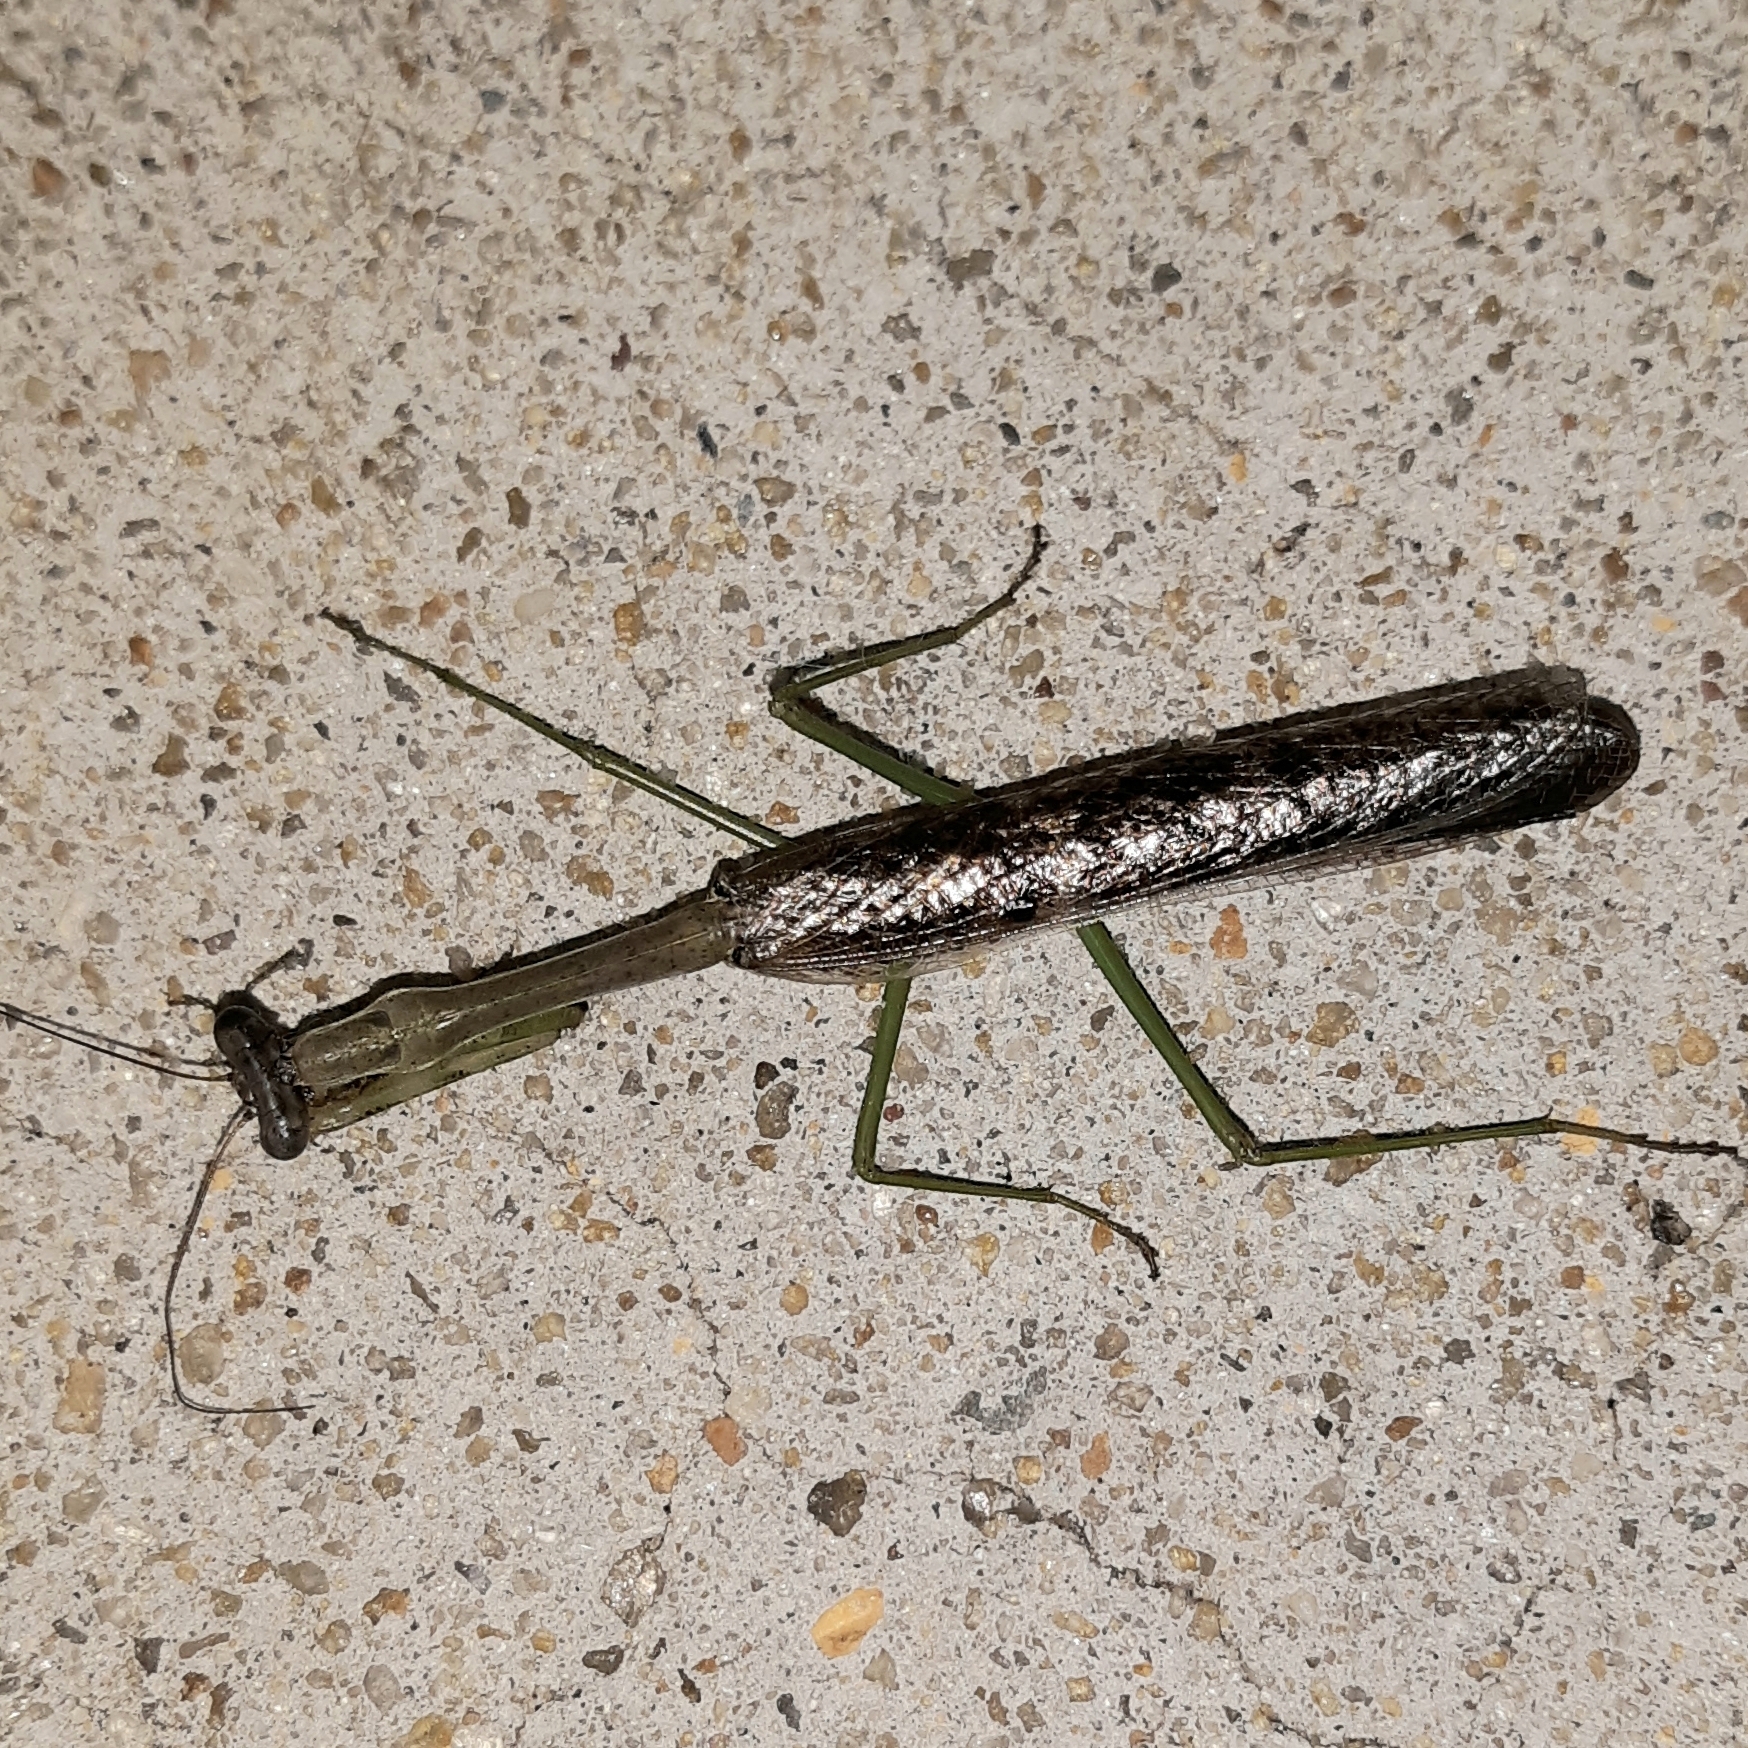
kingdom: Animalia
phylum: Arthropoda
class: Insecta
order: Mantodea
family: Mantidae
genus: Stagmomantis
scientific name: Stagmomantis carolina
